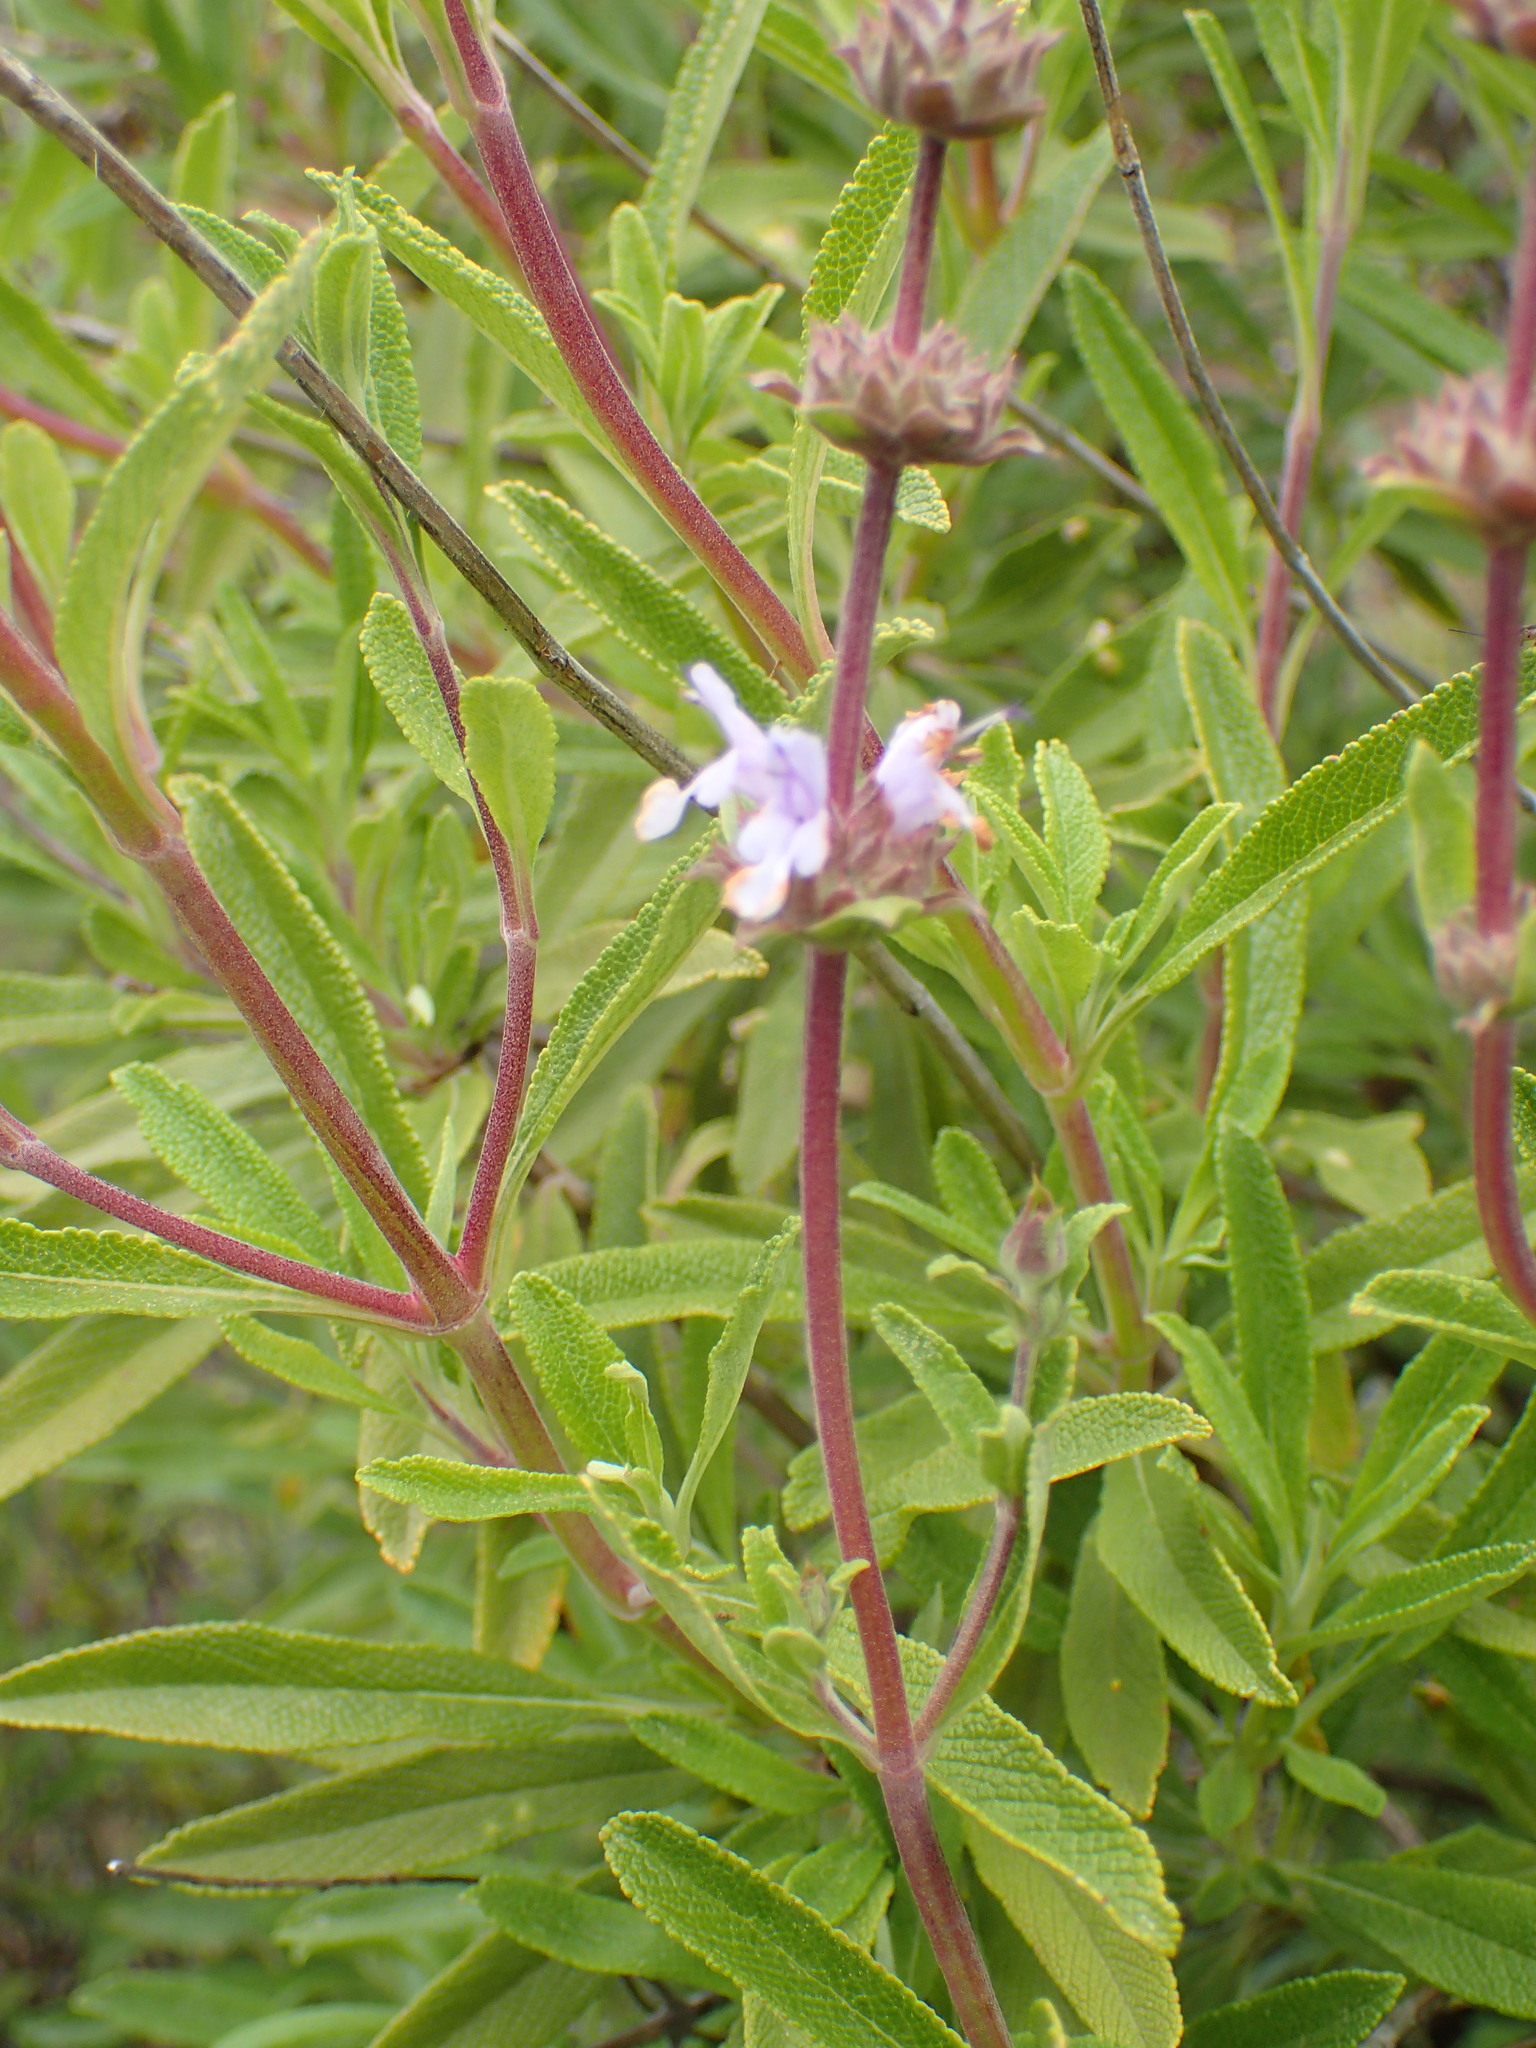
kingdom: Plantae
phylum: Tracheophyta
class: Magnoliopsida
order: Lamiales
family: Lamiaceae
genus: Salvia
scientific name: Salvia mellifera
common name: Black sage
